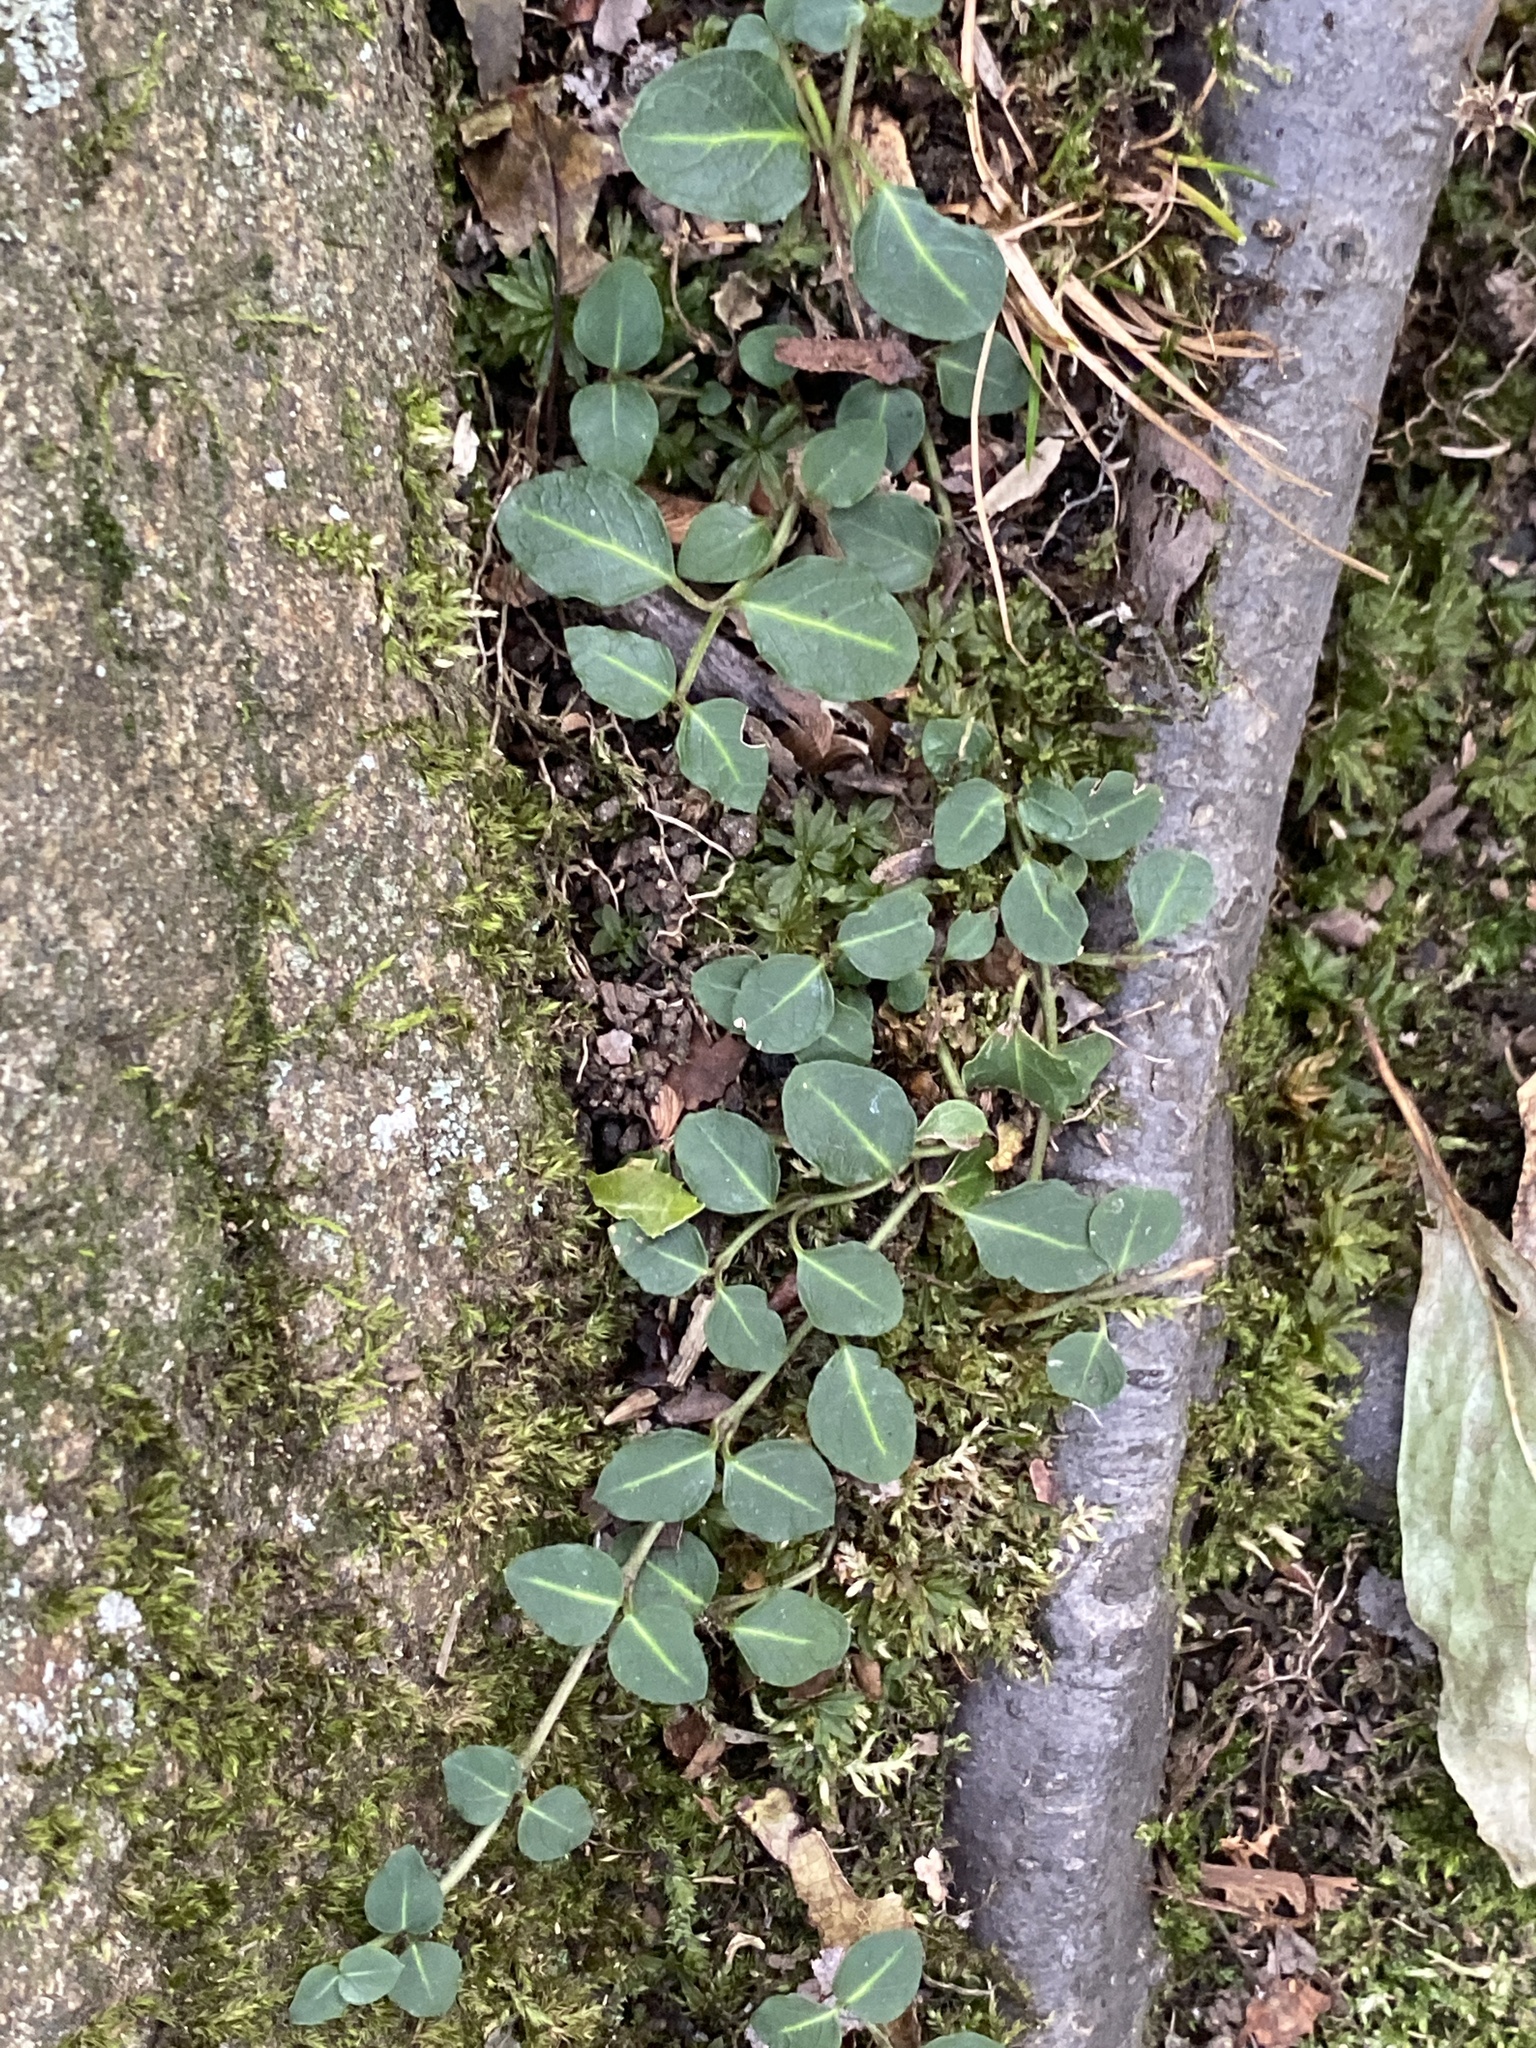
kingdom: Plantae
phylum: Tracheophyta
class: Magnoliopsida
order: Gentianales
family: Rubiaceae
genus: Mitchella
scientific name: Mitchella repens
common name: Partridge-berry
